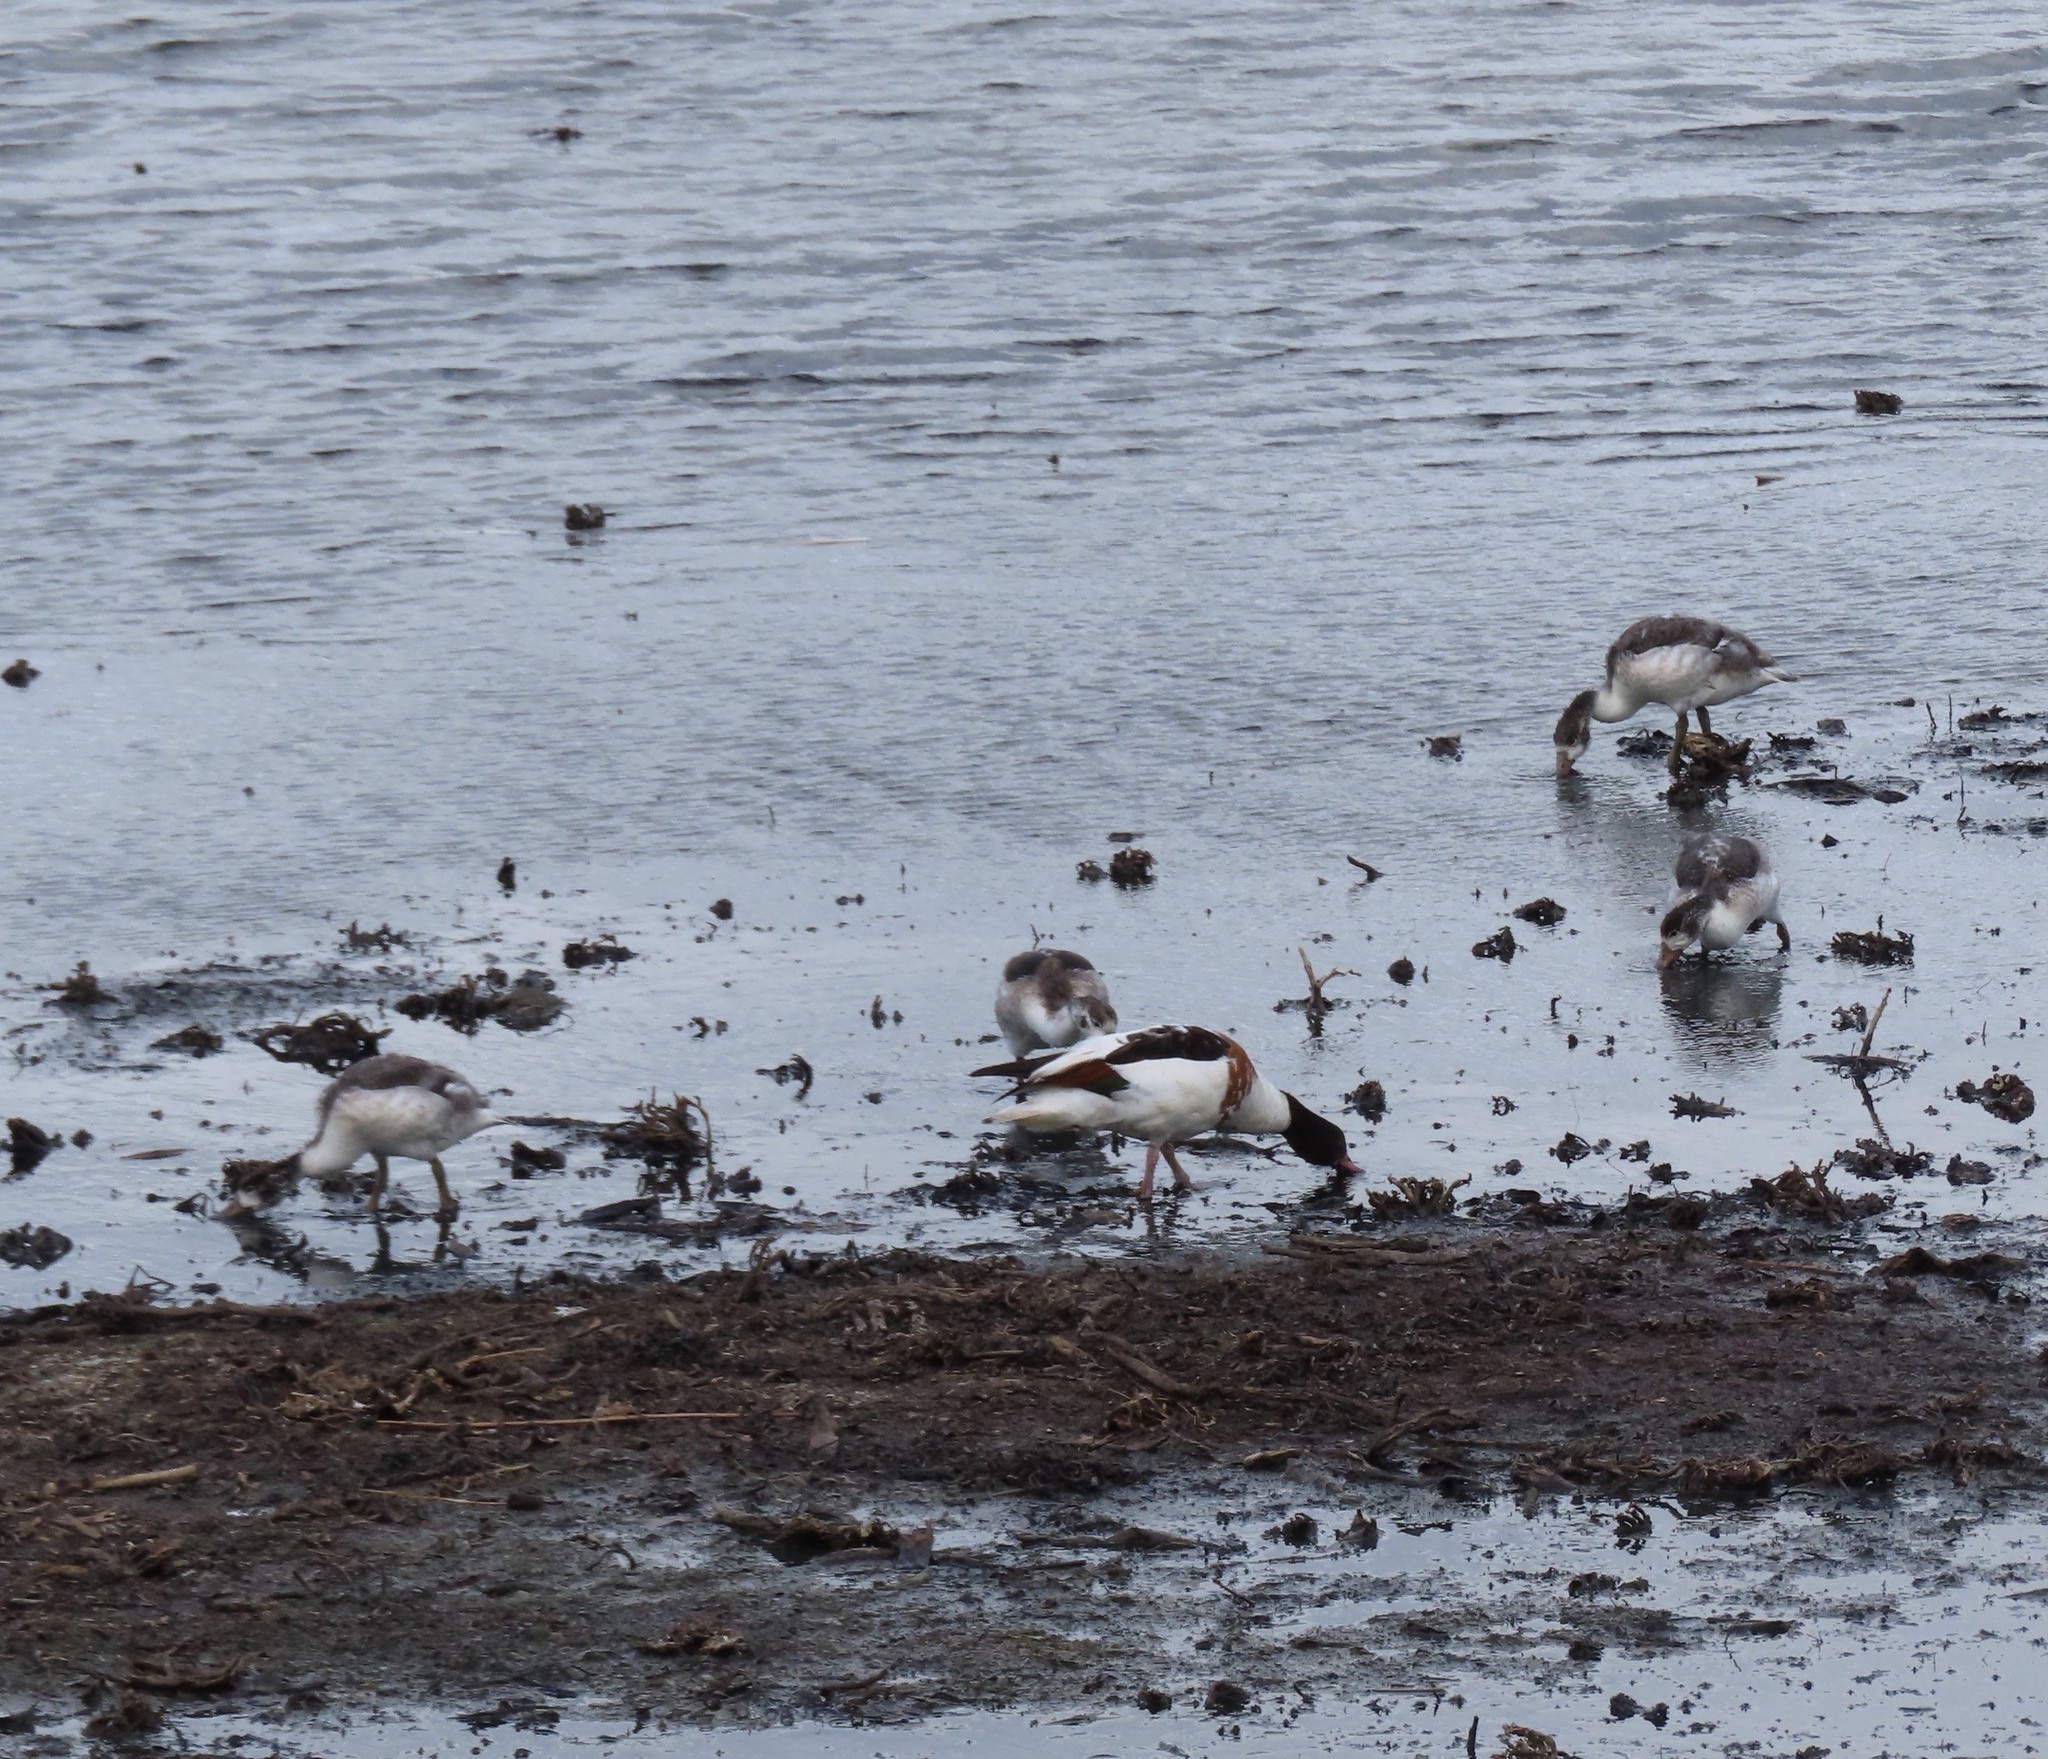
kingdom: Animalia
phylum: Chordata
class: Aves
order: Anseriformes
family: Anatidae
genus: Tadorna
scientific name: Tadorna tadorna
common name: Common shelduck
